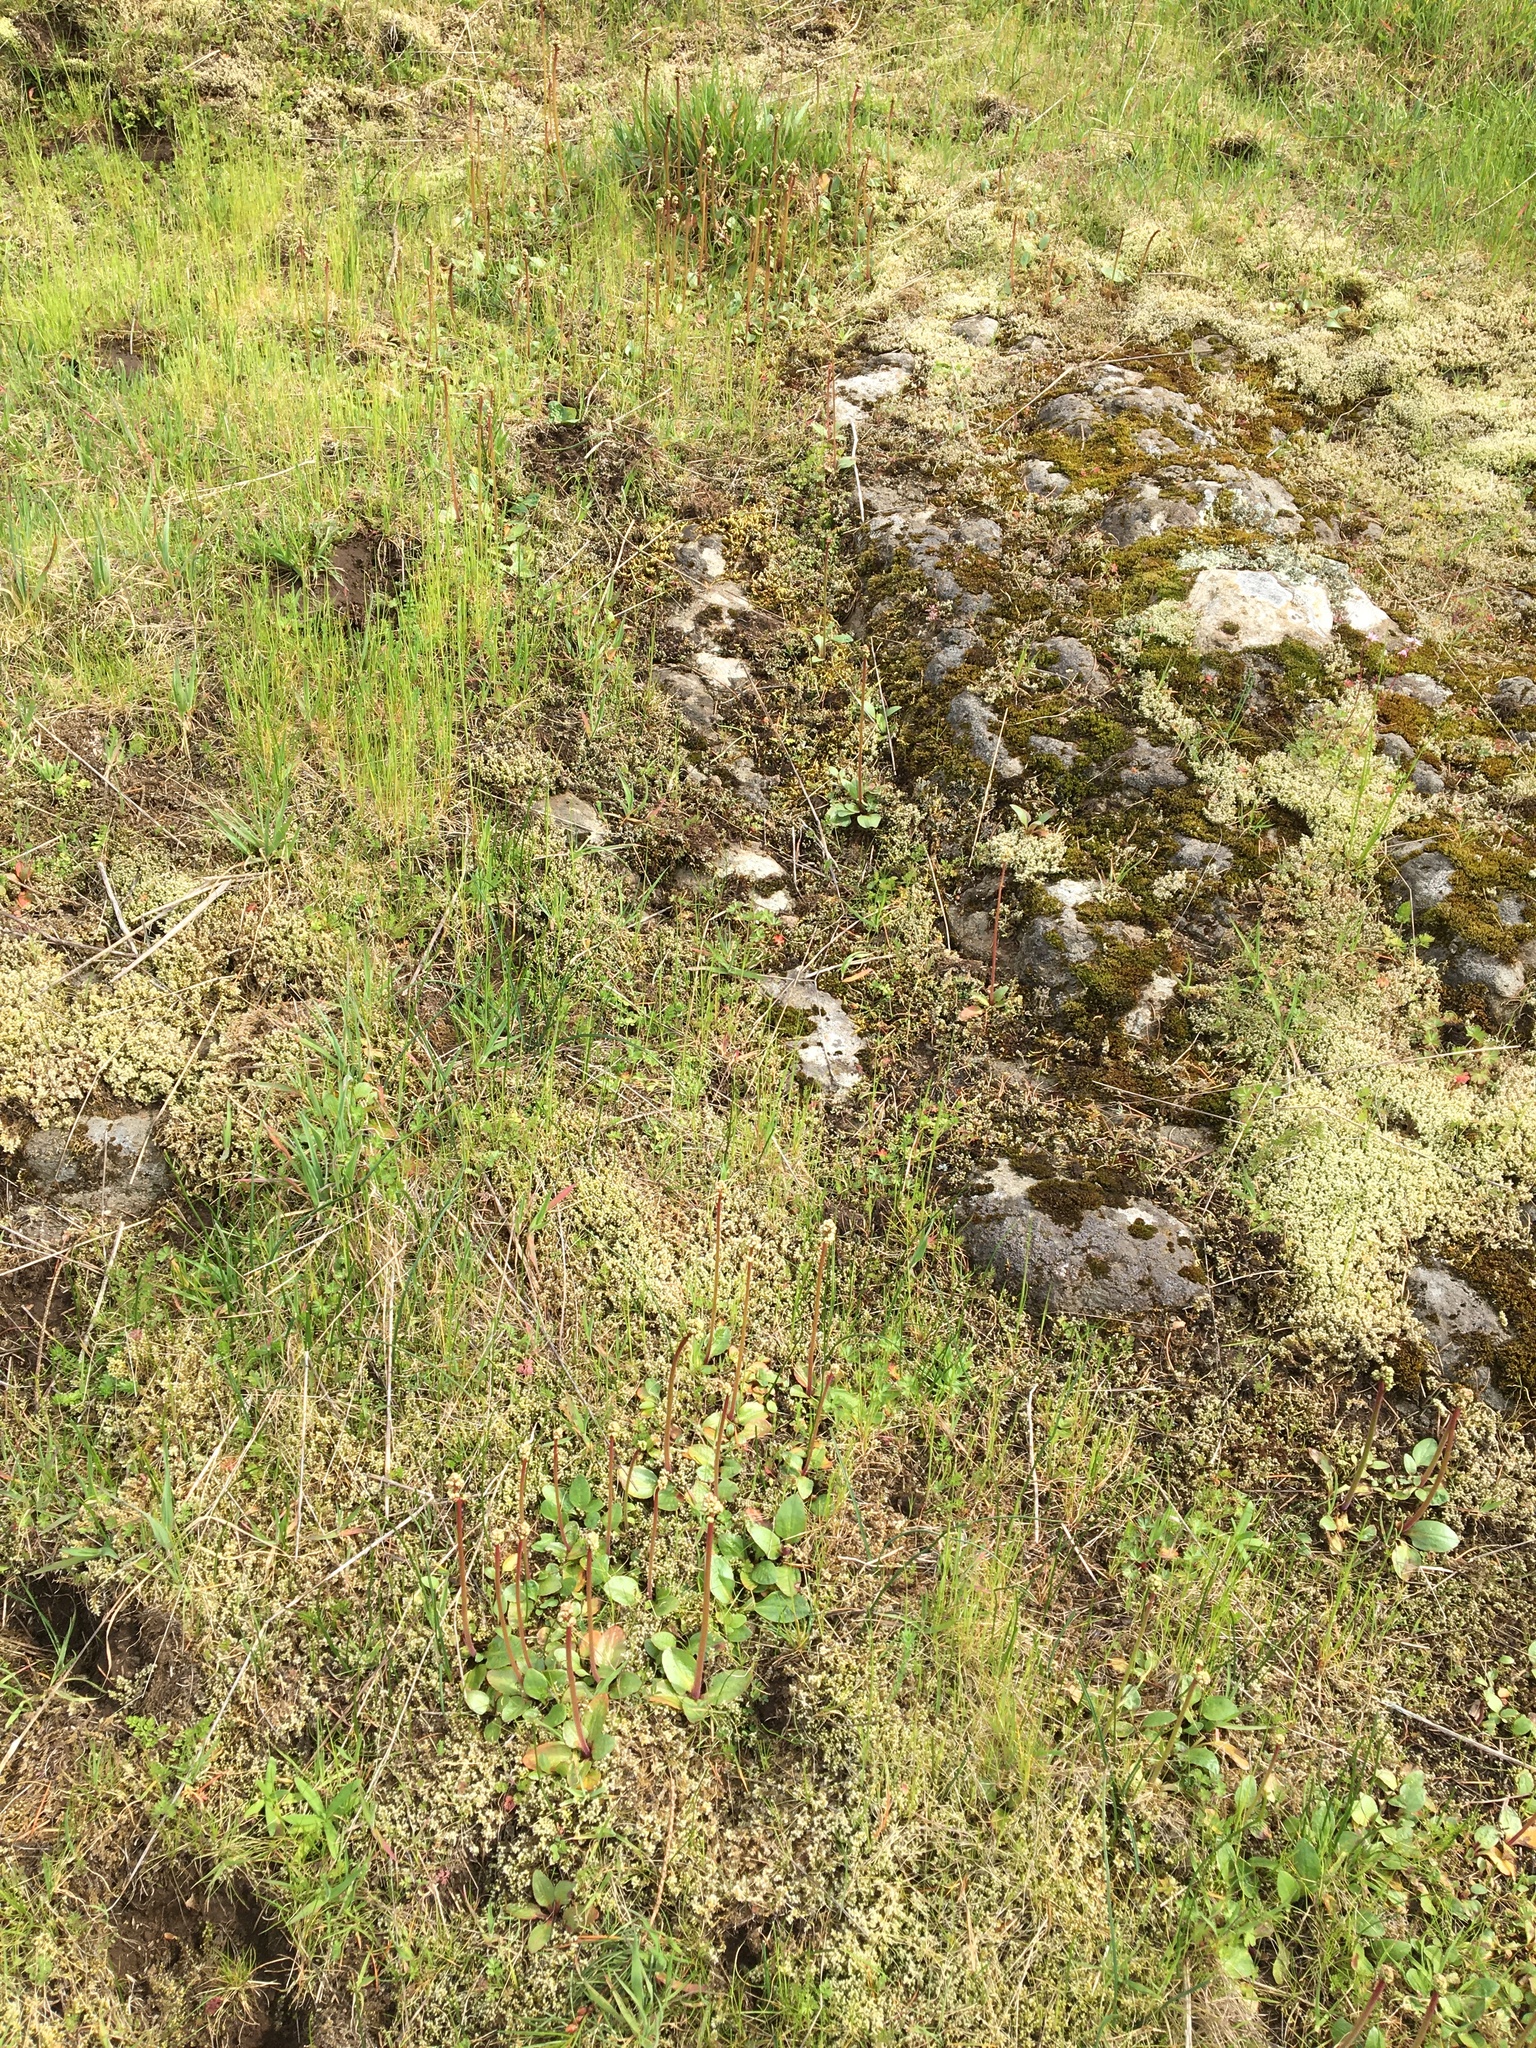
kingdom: Plantae
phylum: Tracheophyta
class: Magnoliopsida
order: Saxifragales
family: Saxifragaceae
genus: Micranthes
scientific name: Micranthes integrifolia
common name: Wholeleaf saxifrage
